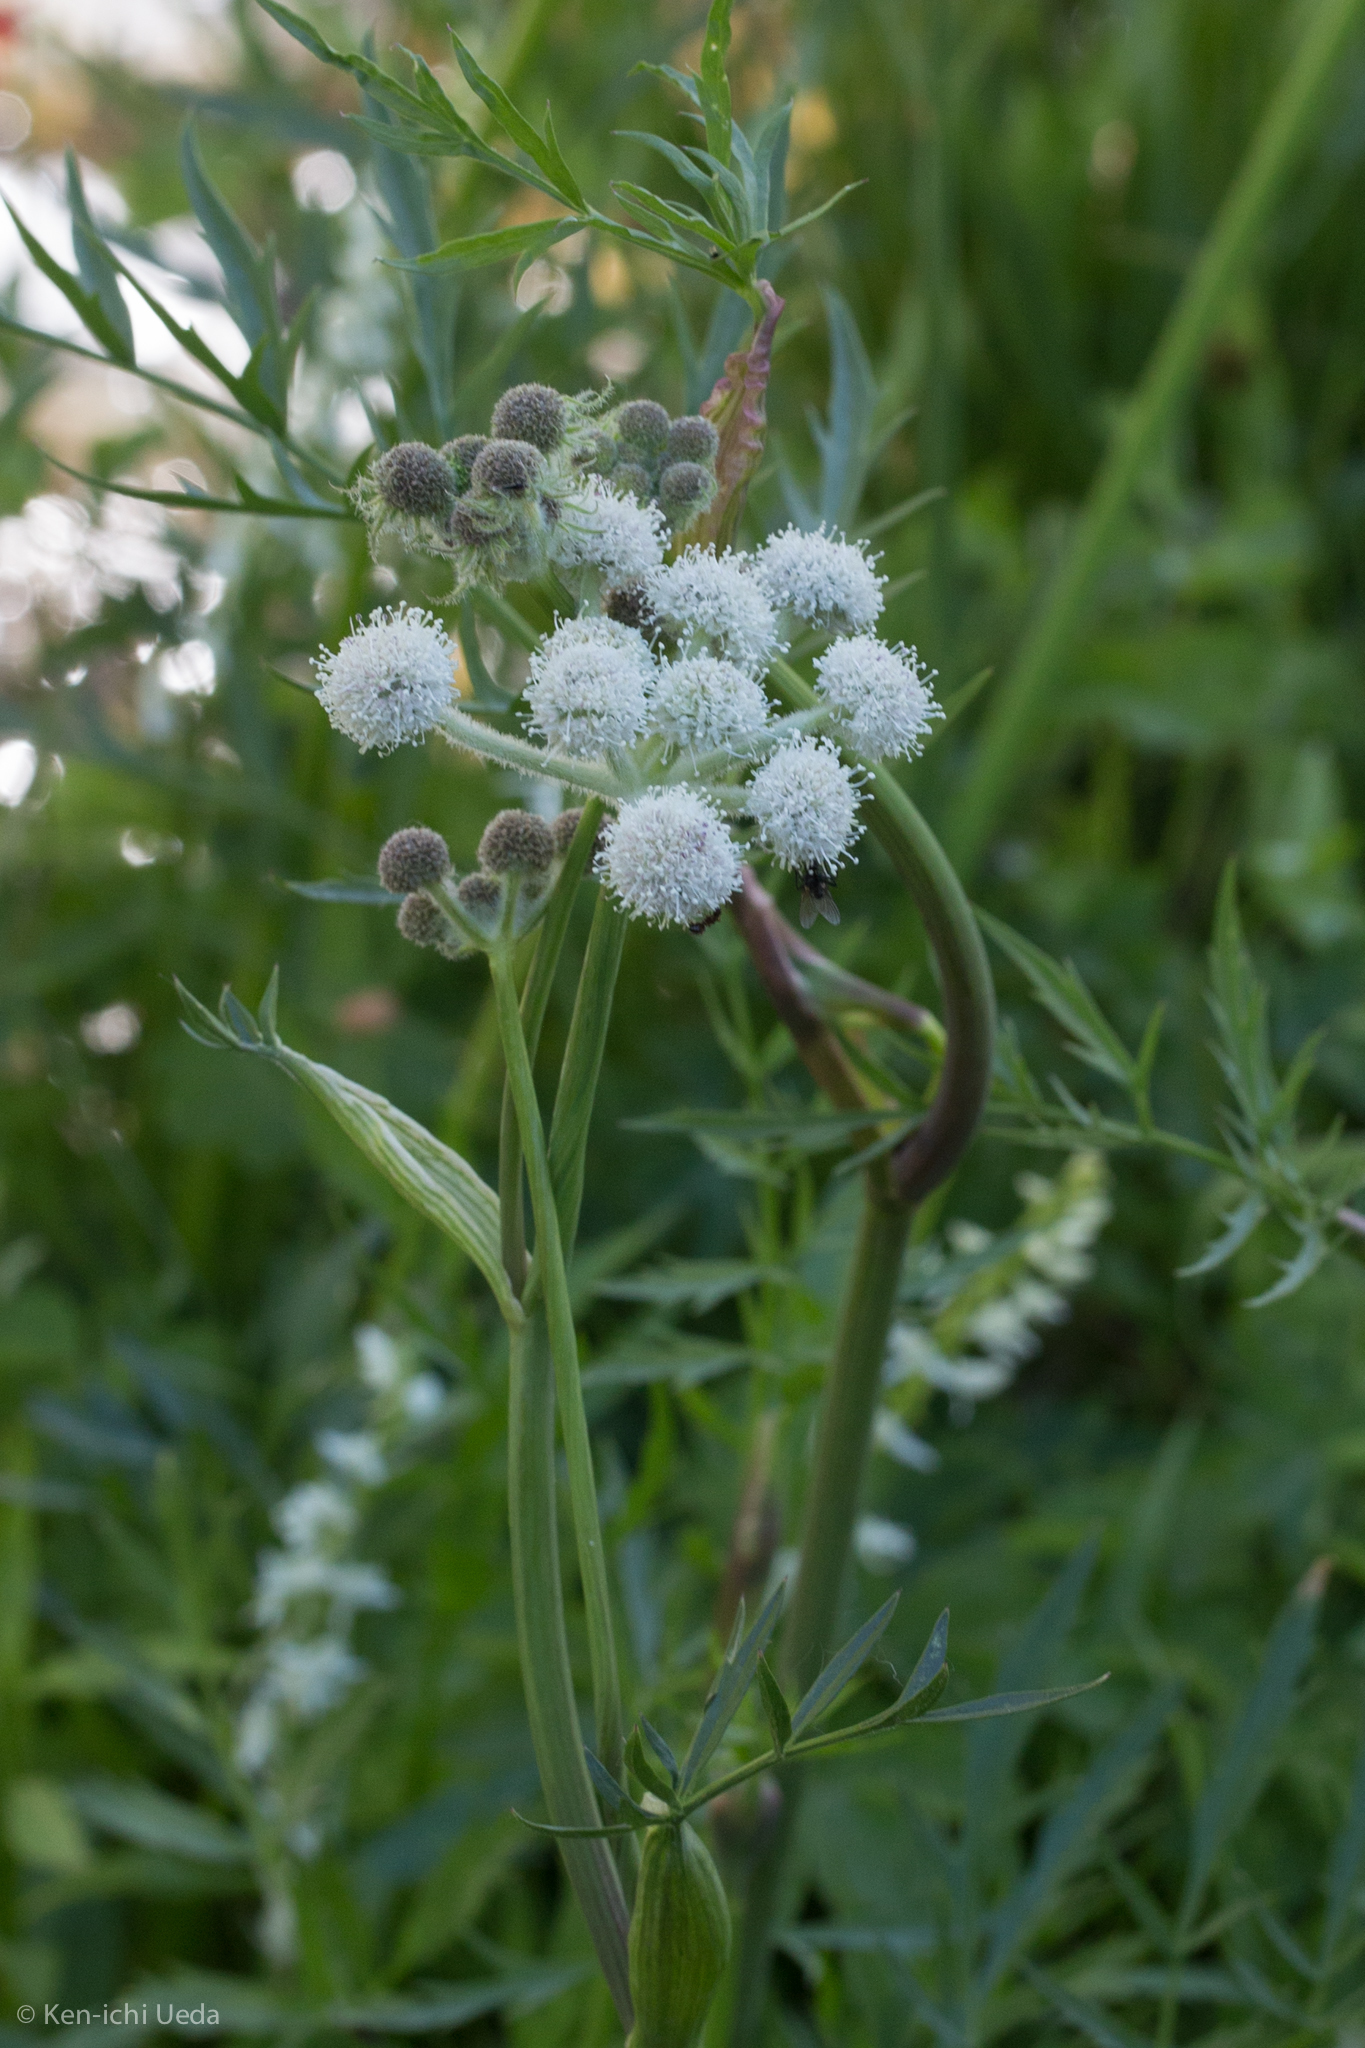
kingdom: Plantae
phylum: Tracheophyta
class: Magnoliopsida
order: Apiales
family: Apiaceae
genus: Angelica
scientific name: Angelica capitellata
